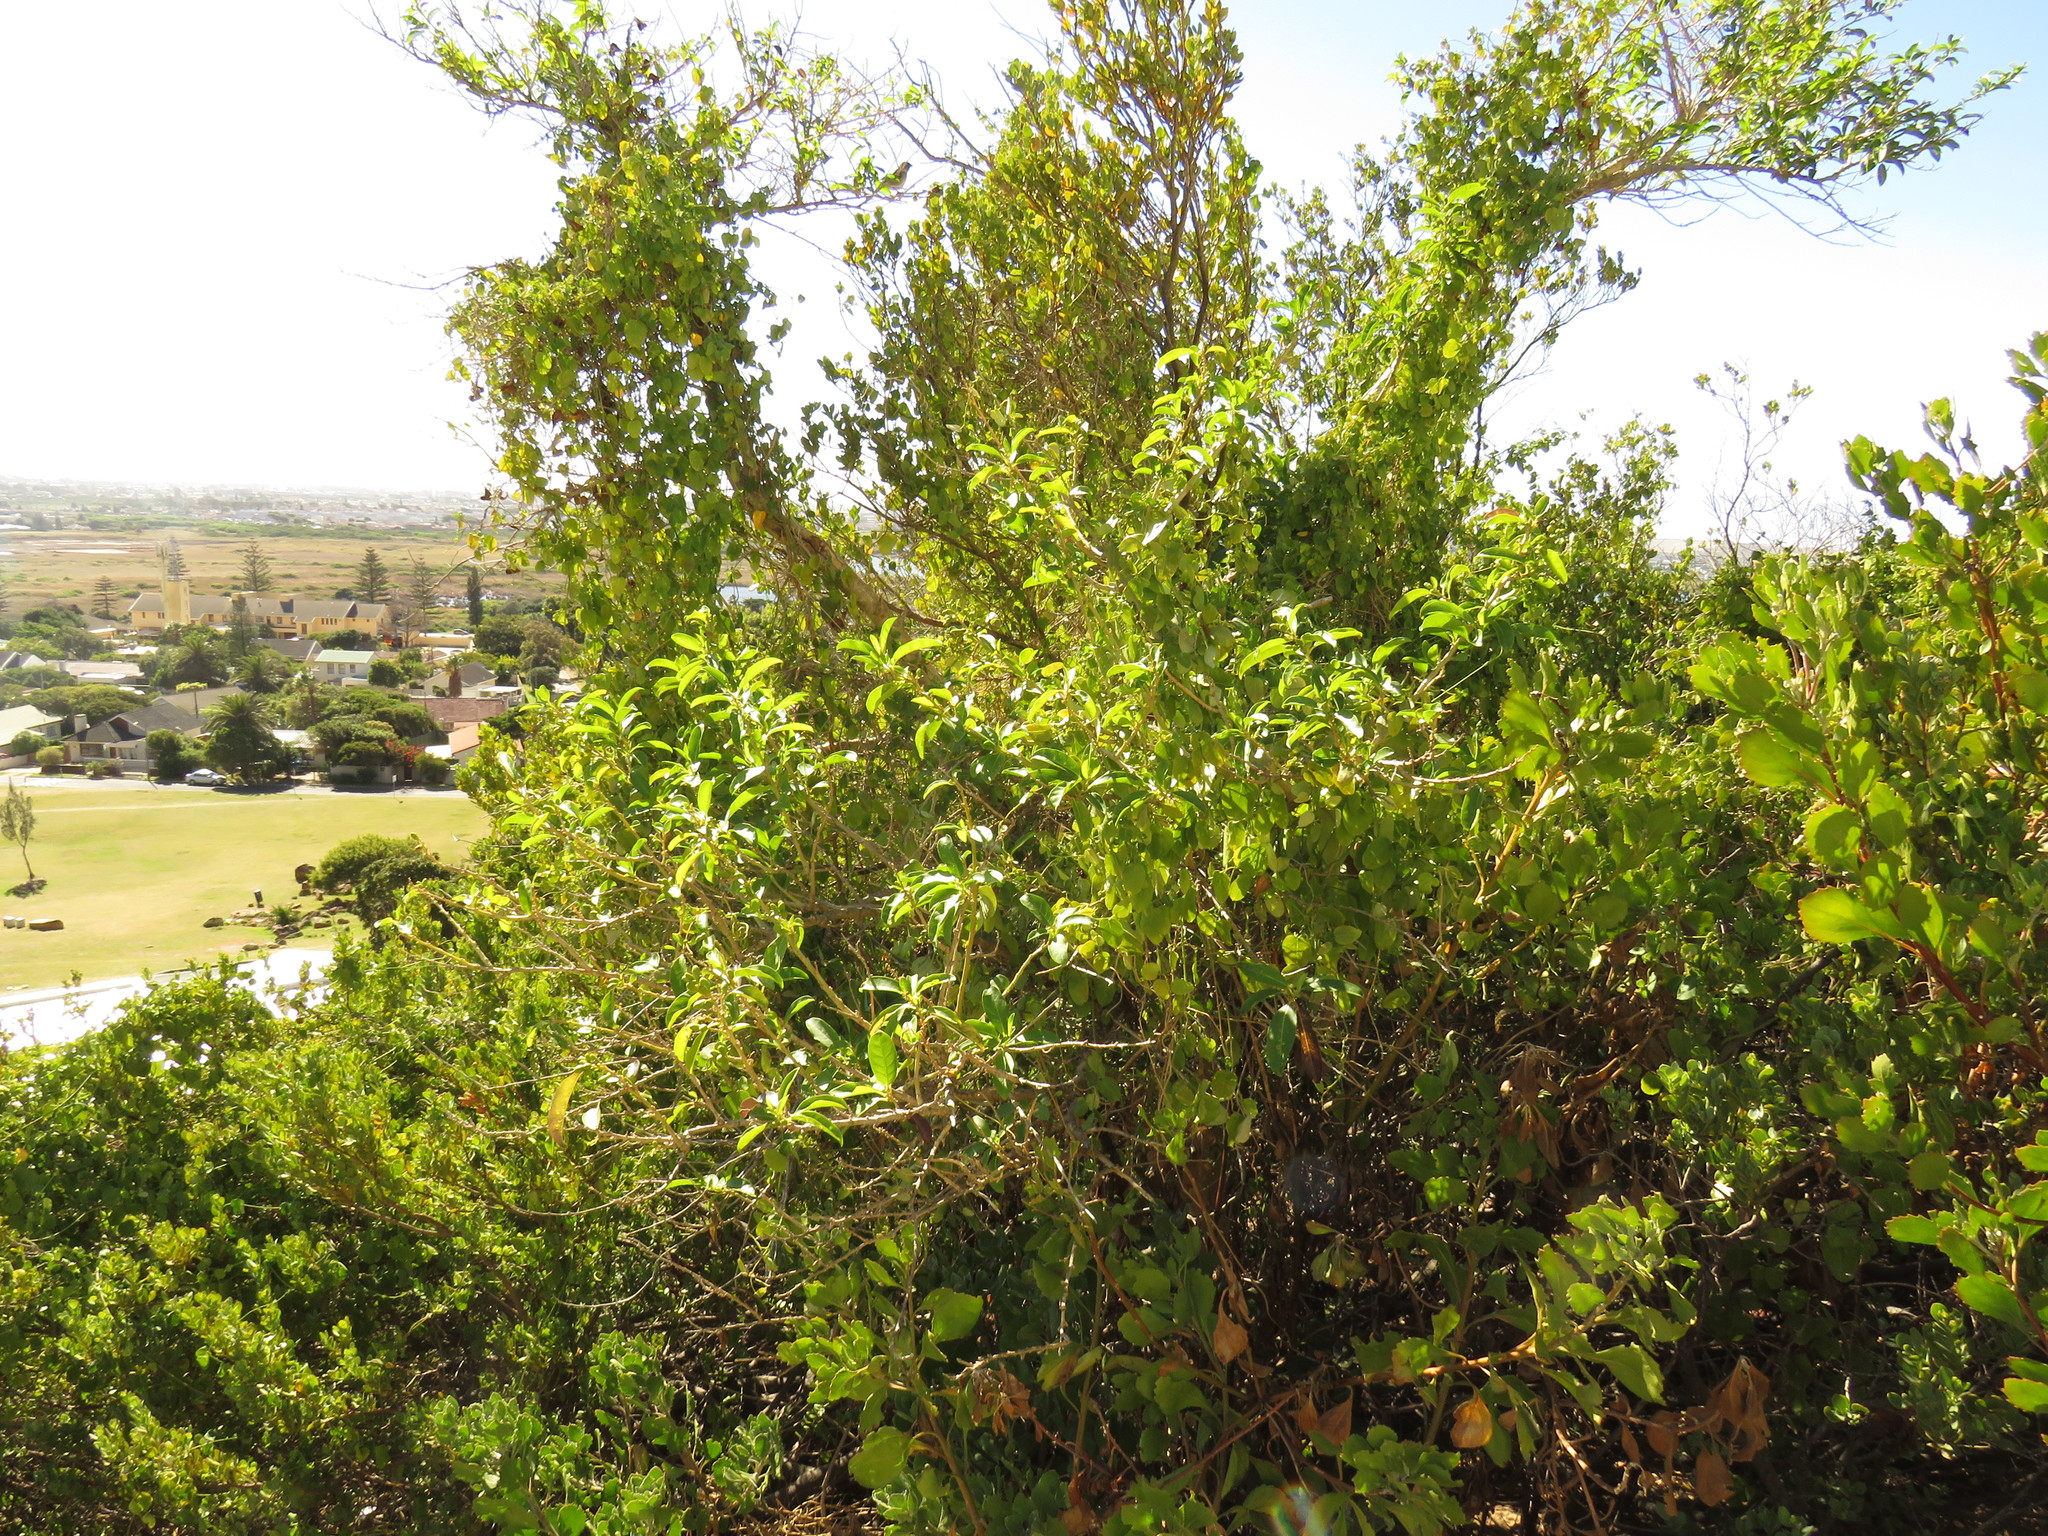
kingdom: Plantae
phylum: Tracheophyta
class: Magnoliopsida
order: Solanales
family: Solanaceae
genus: Cestrum
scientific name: Cestrum laevigatum
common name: Inkberry
